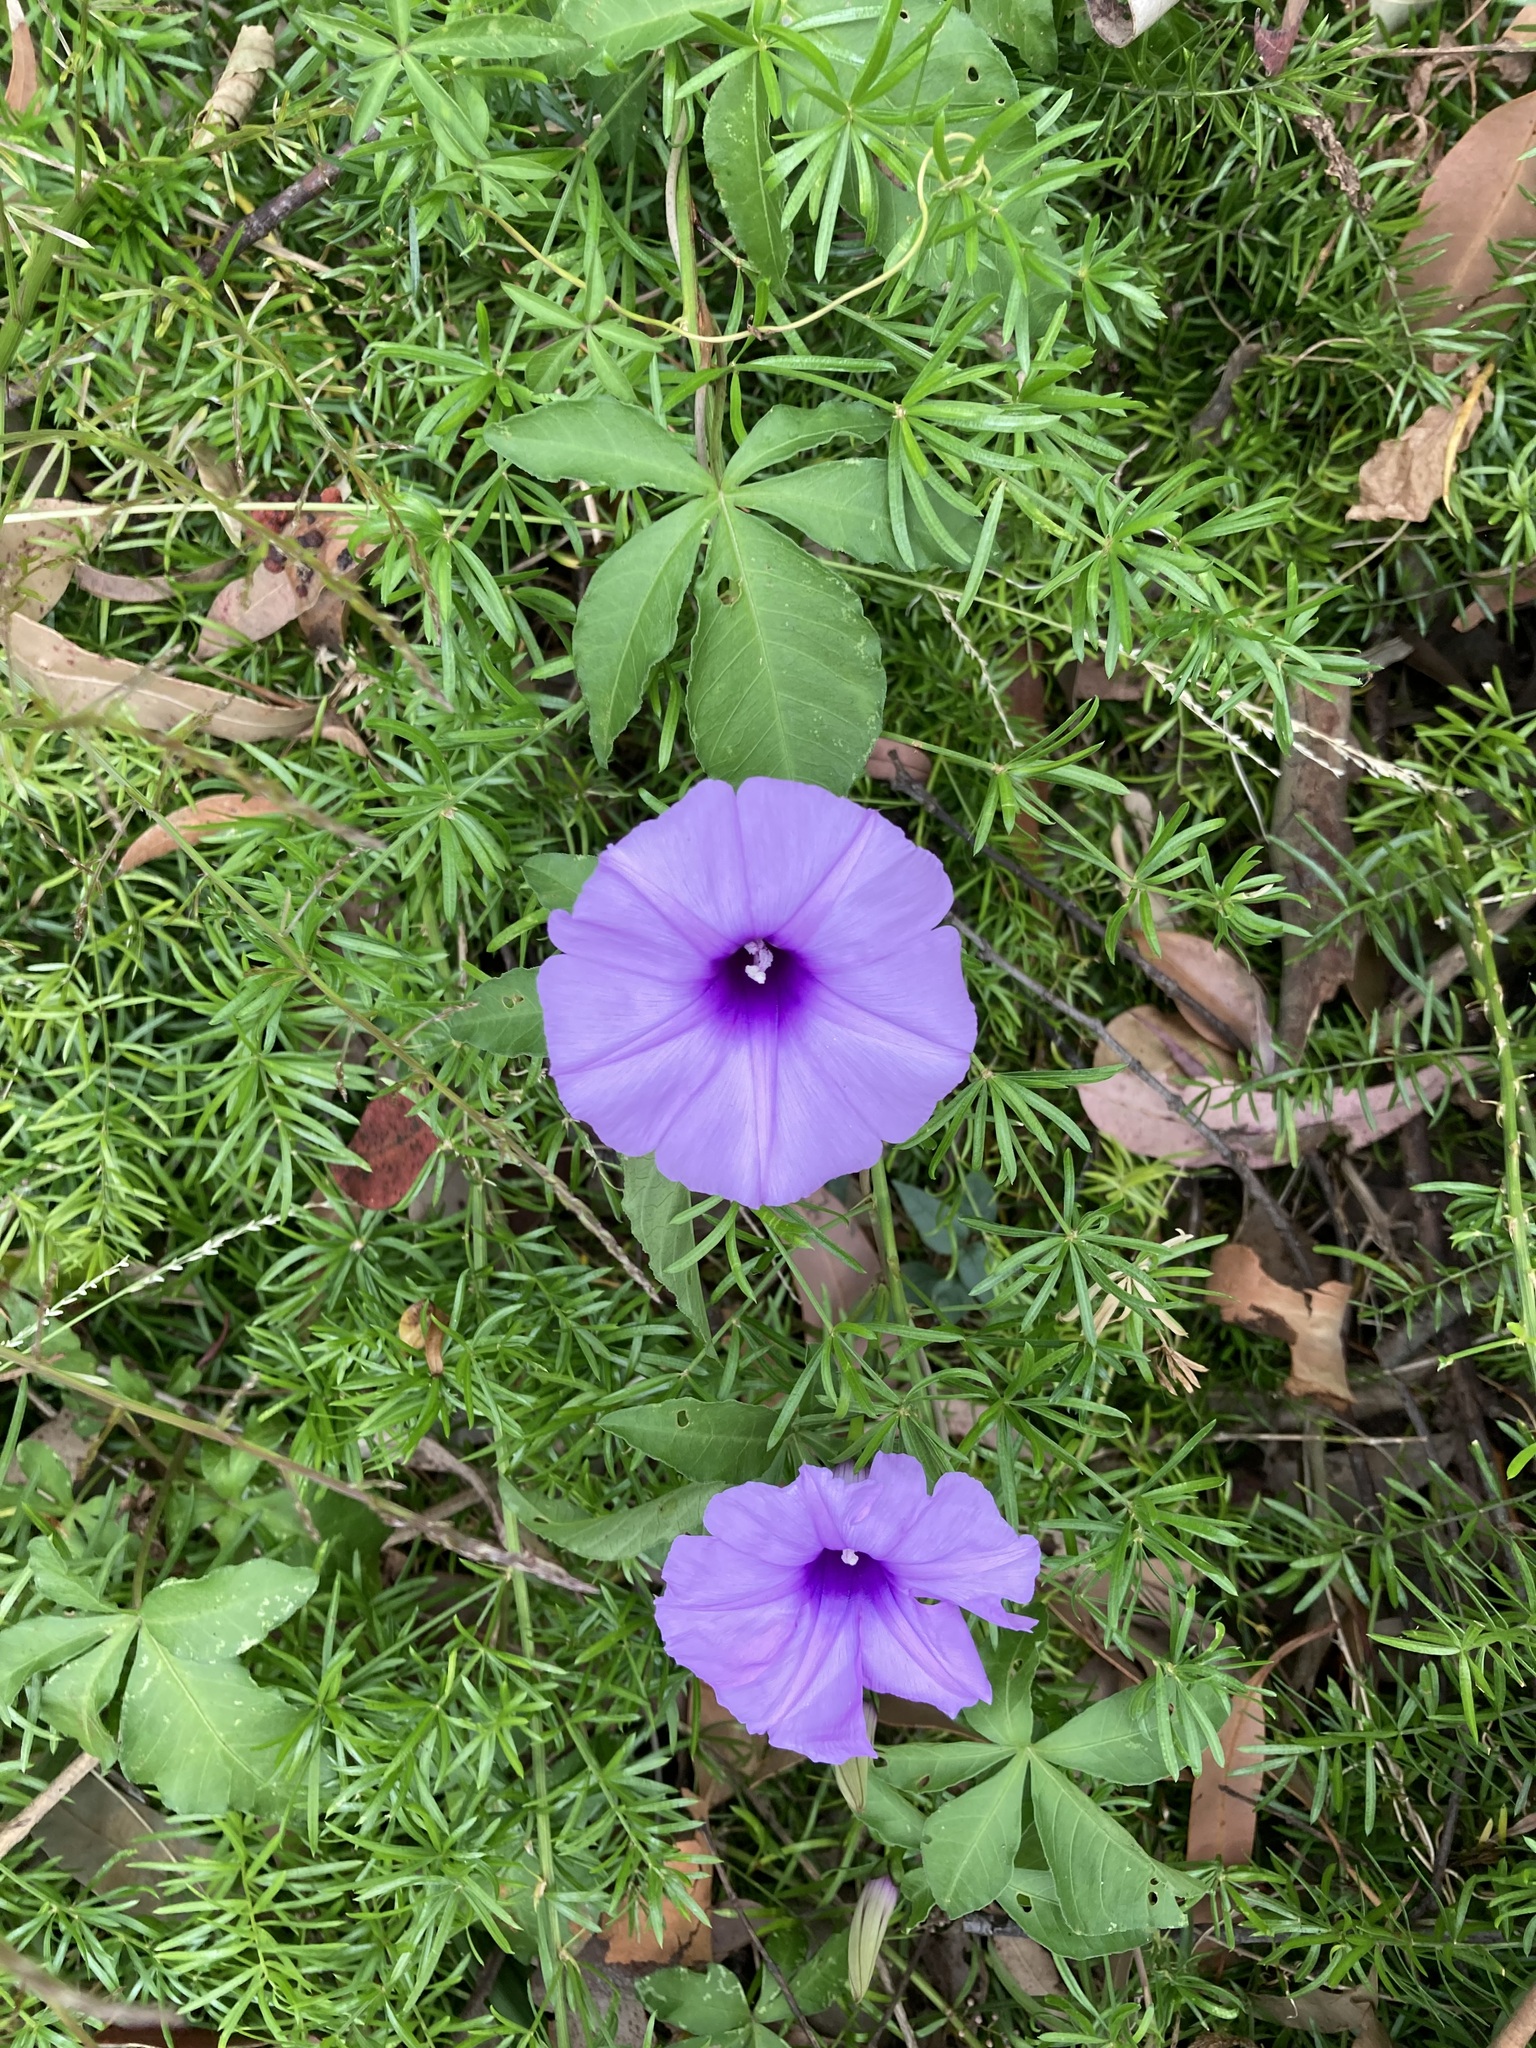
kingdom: Plantae
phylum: Tracheophyta
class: Magnoliopsida
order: Solanales
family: Convolvulaceae
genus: Ipomoea
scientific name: Ipomoea cairica
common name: Mile a minute vine
